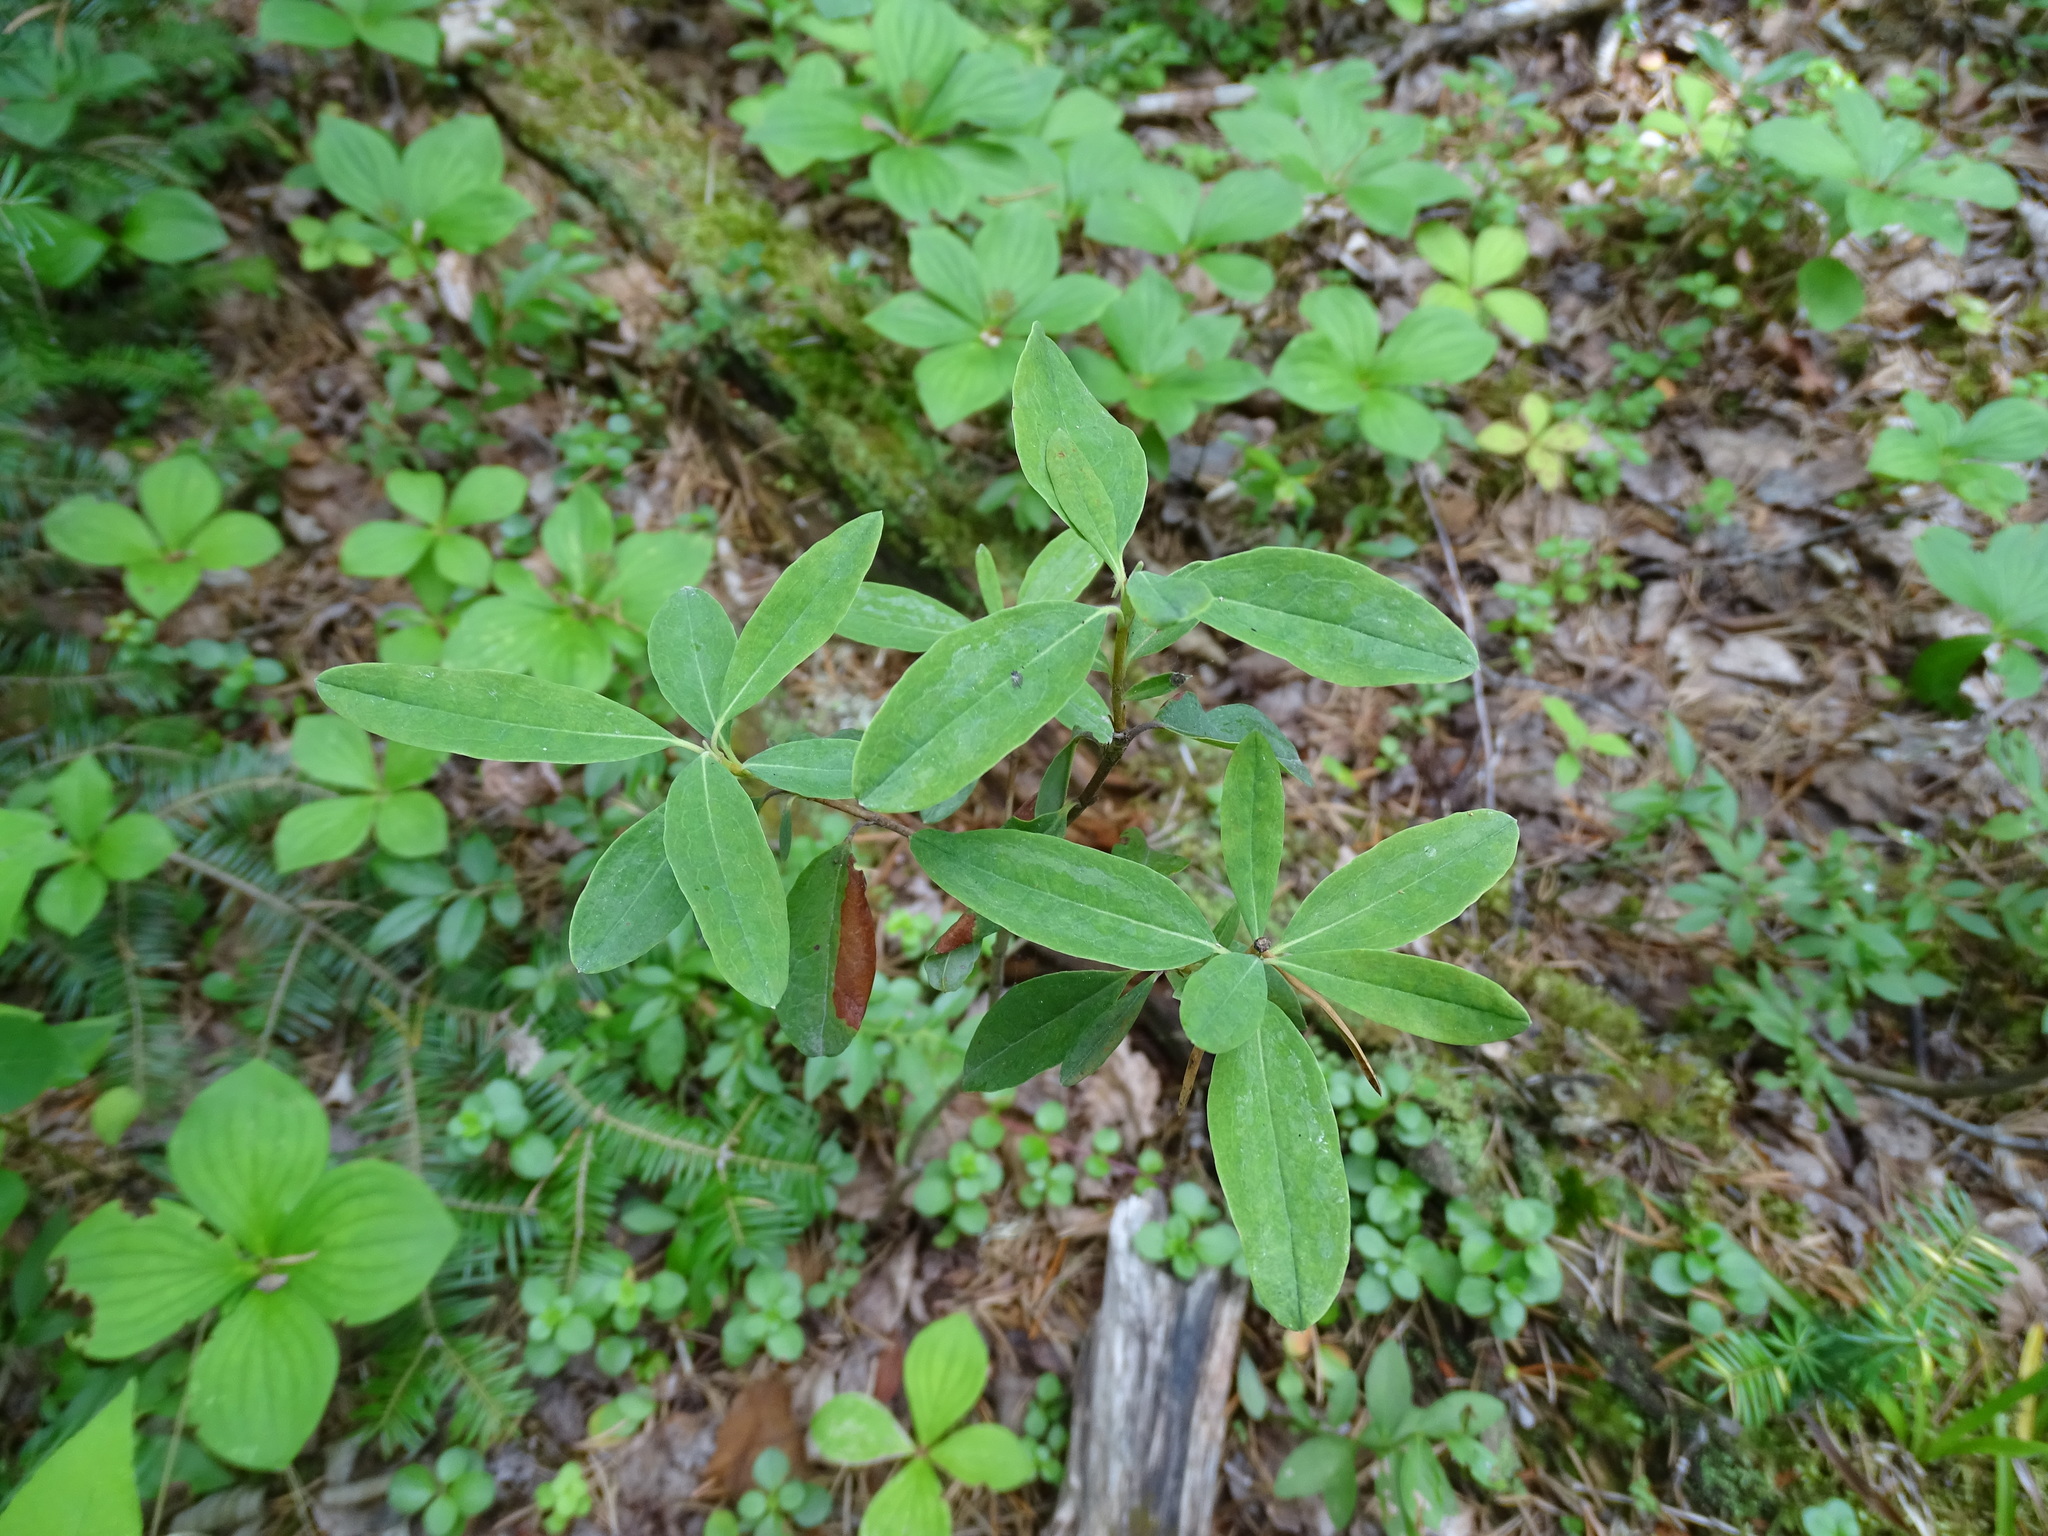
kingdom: Plantae
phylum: Tracheophyta
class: Magnoliopsida
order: Ericales
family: Ericaceae
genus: Kalmia
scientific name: Kalmia angustifolia
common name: Sheep-laurel
